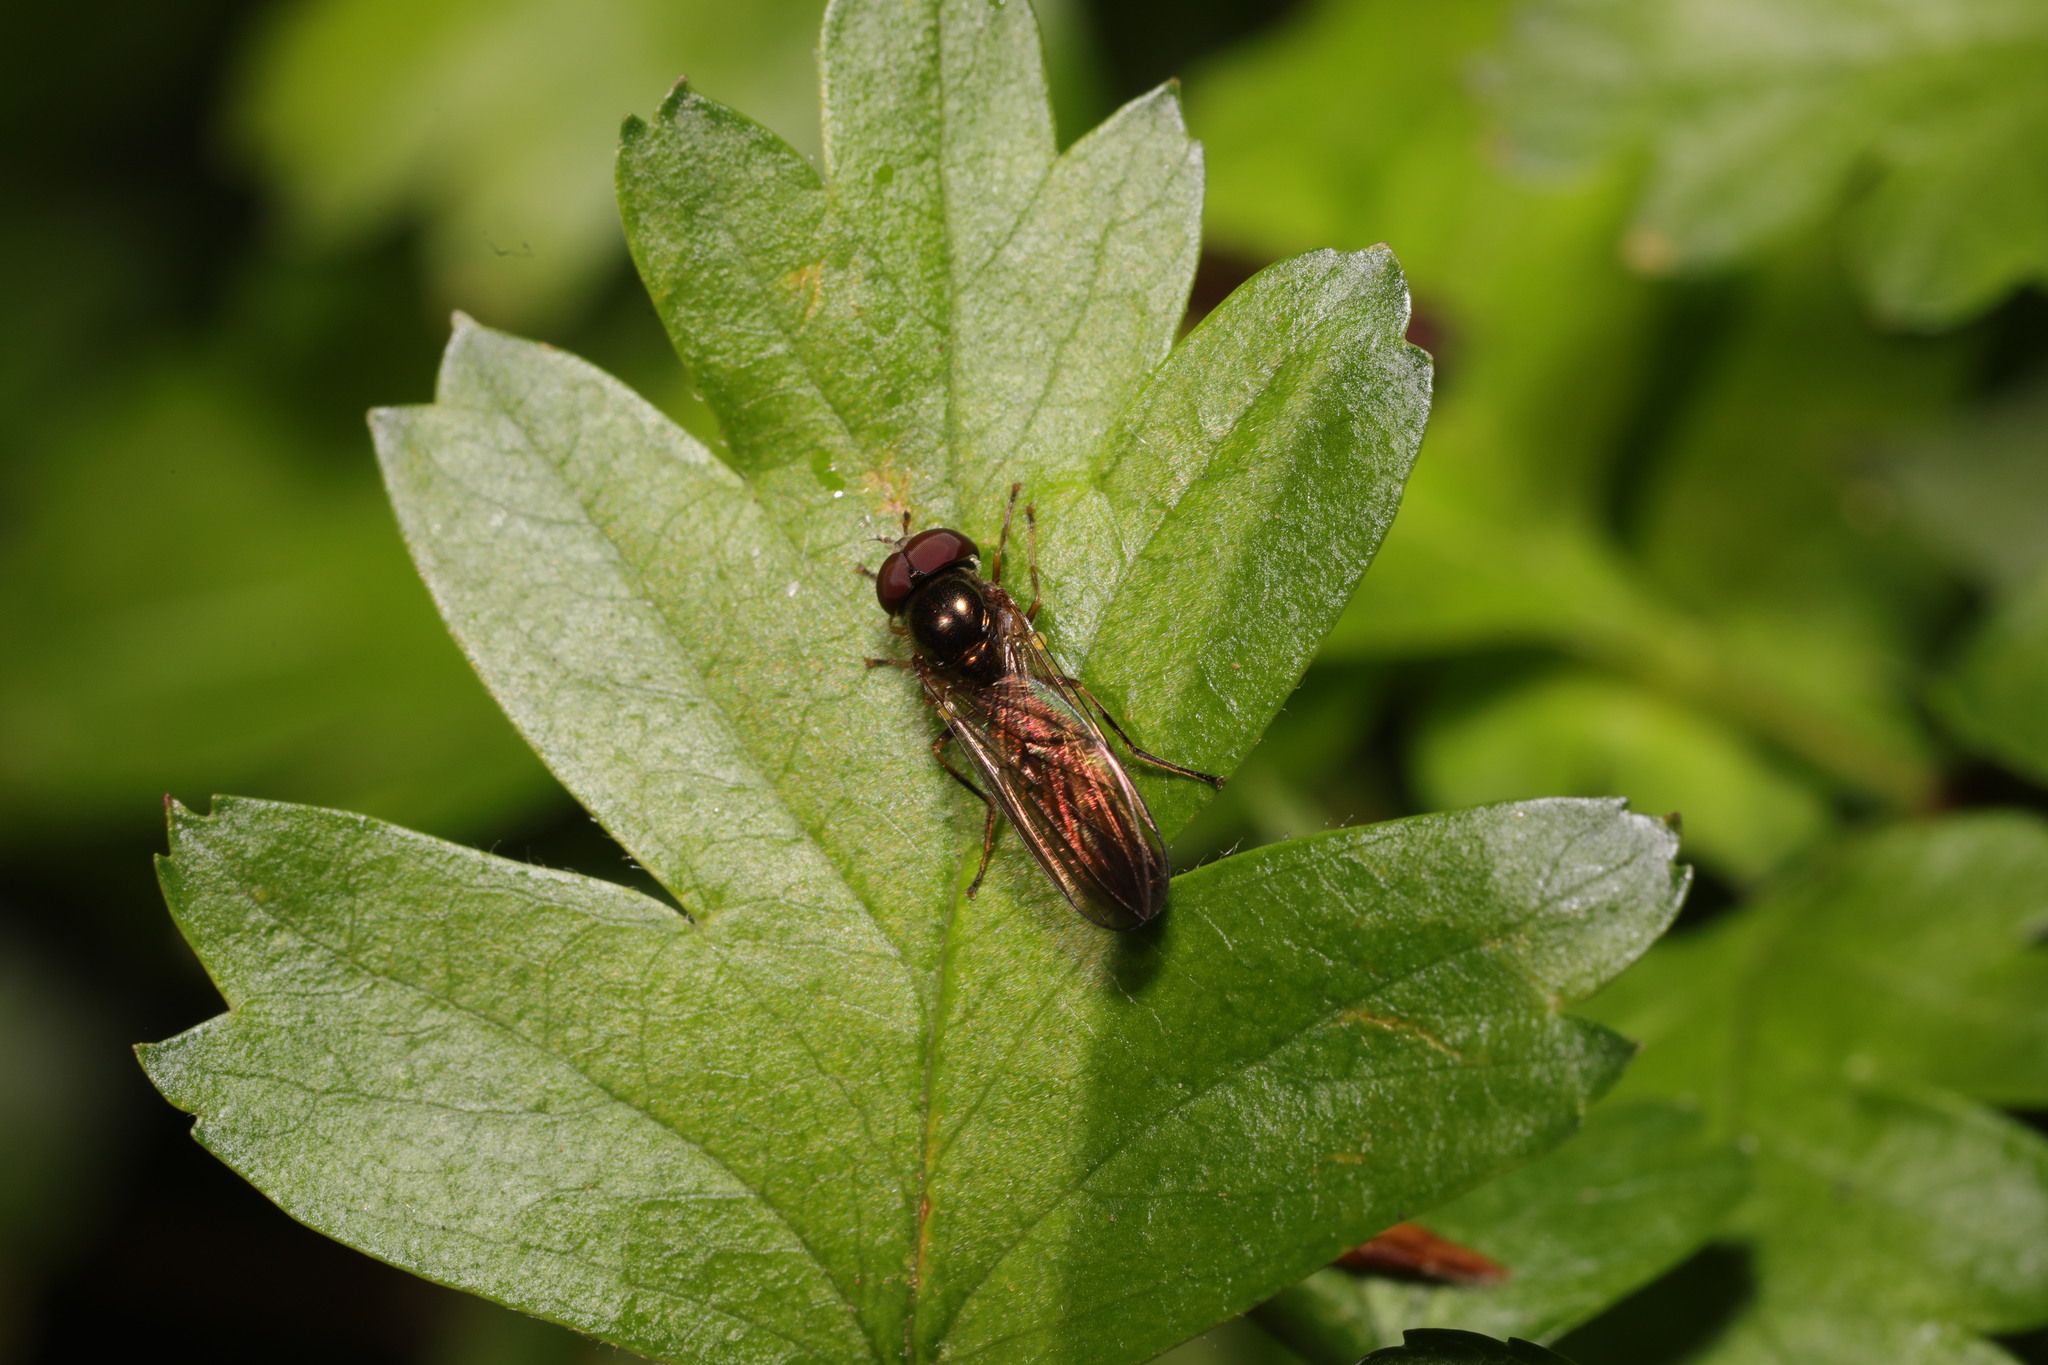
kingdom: Animalia
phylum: Arthropoda
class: Insecta
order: Diptera
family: Syrphidae
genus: Melanostoma
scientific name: Melanostoma
